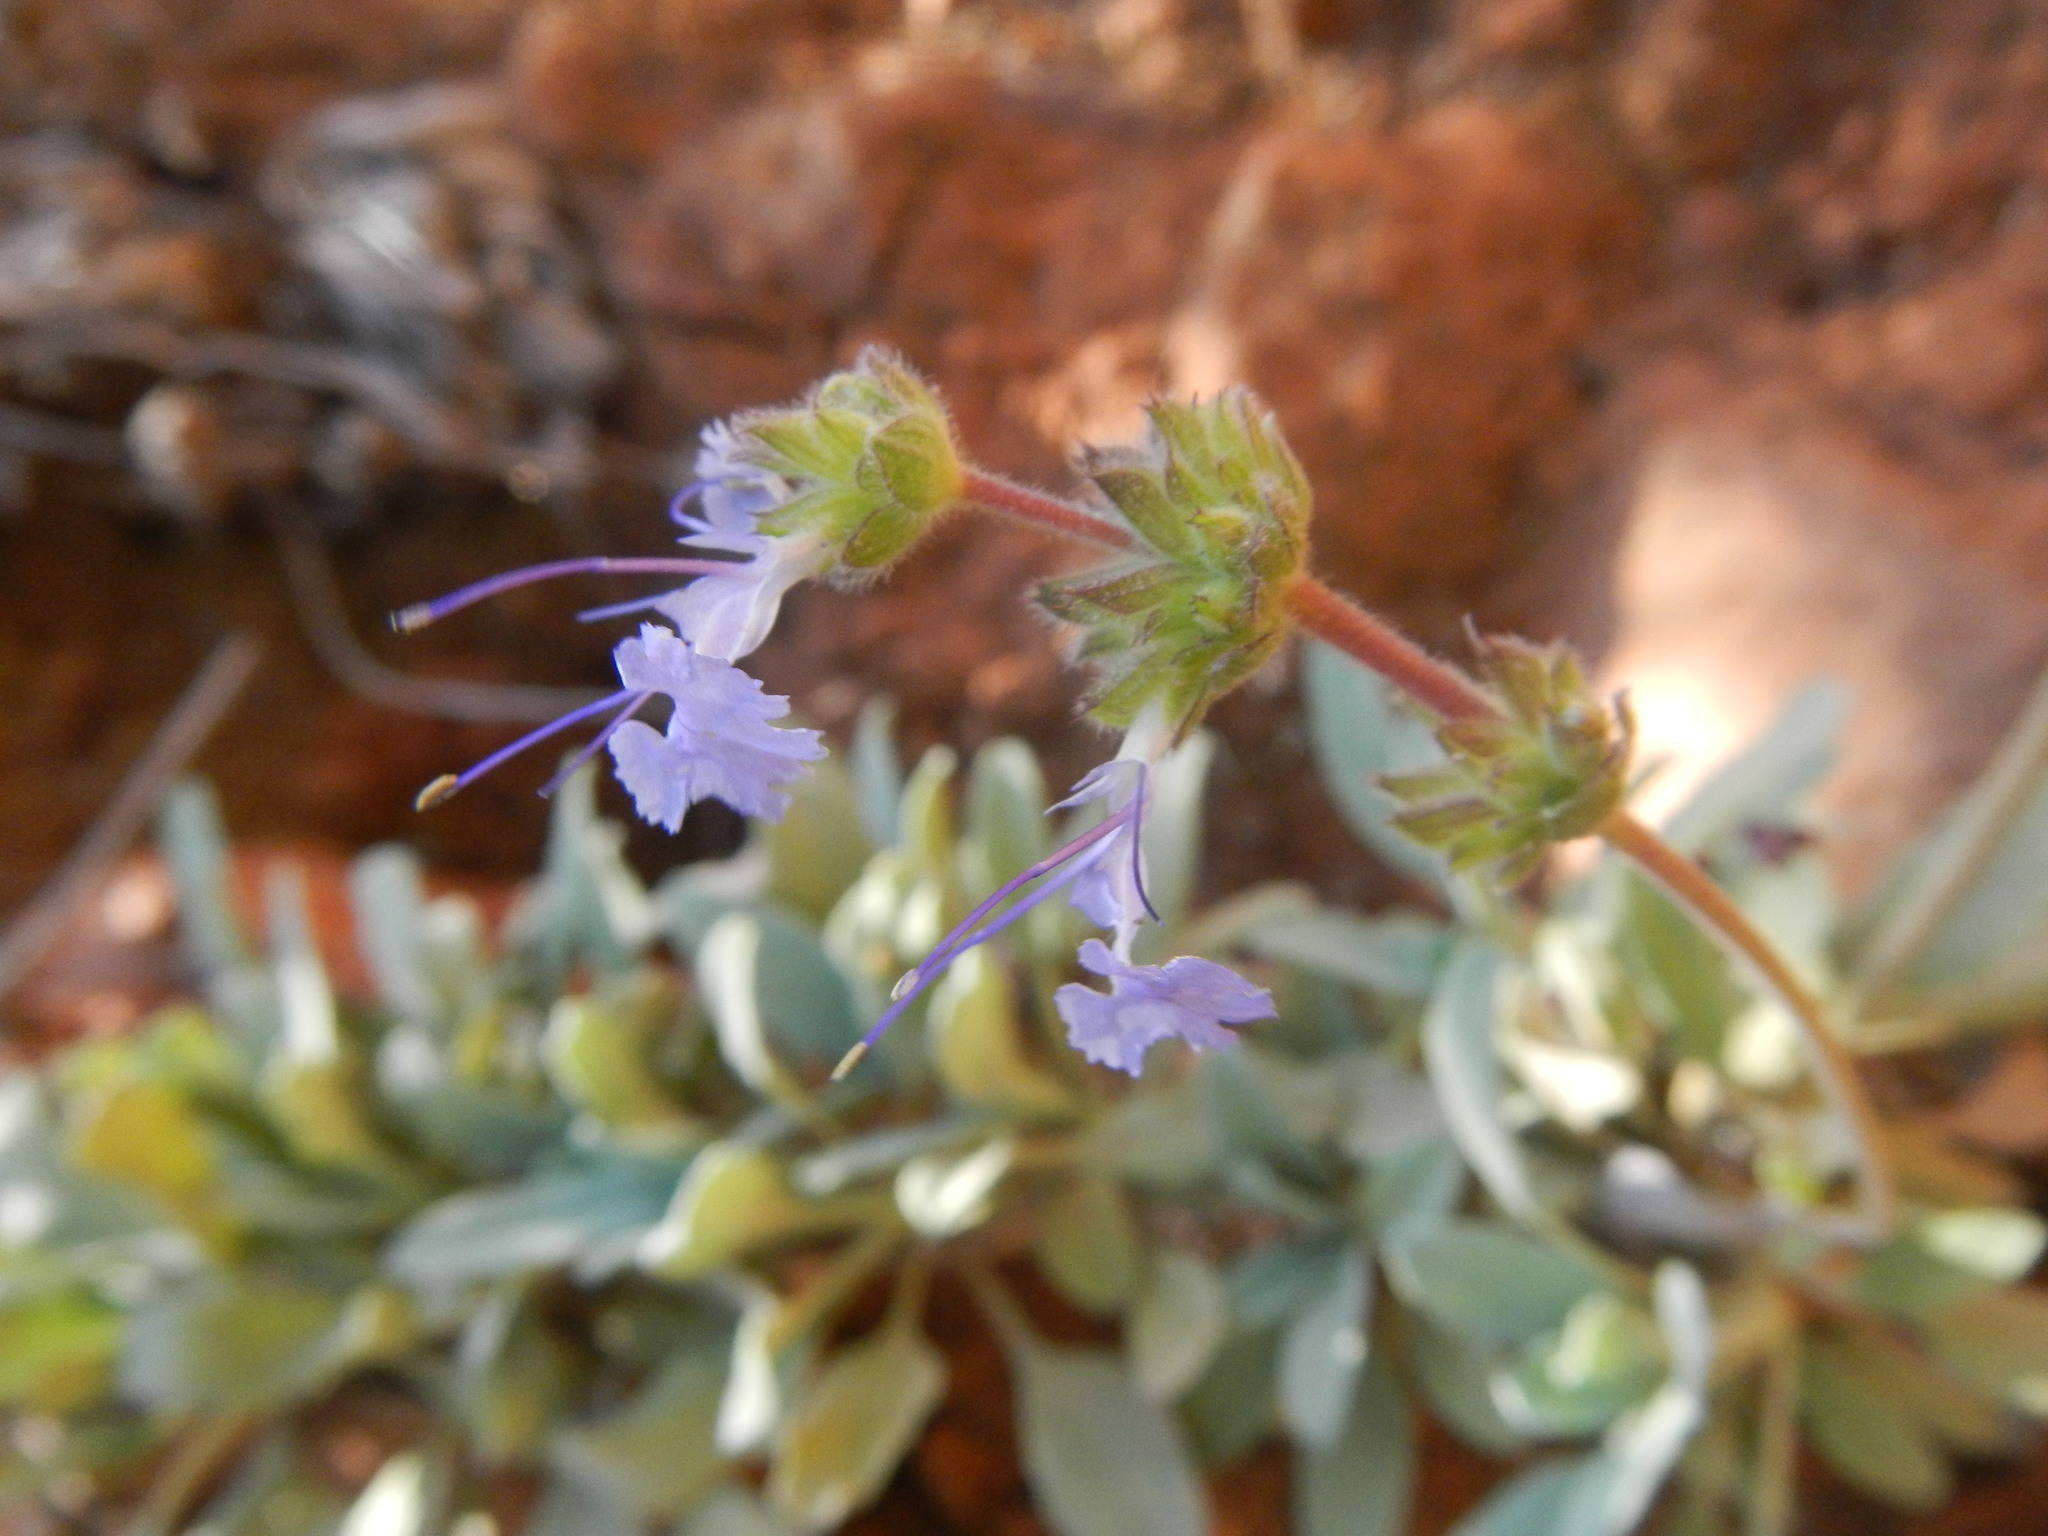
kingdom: Plantae
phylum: Tracheophyta
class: Magnoliopsida
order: Lamiales
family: Lamiaceae
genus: Salvia
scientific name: Salvia sonomensis
